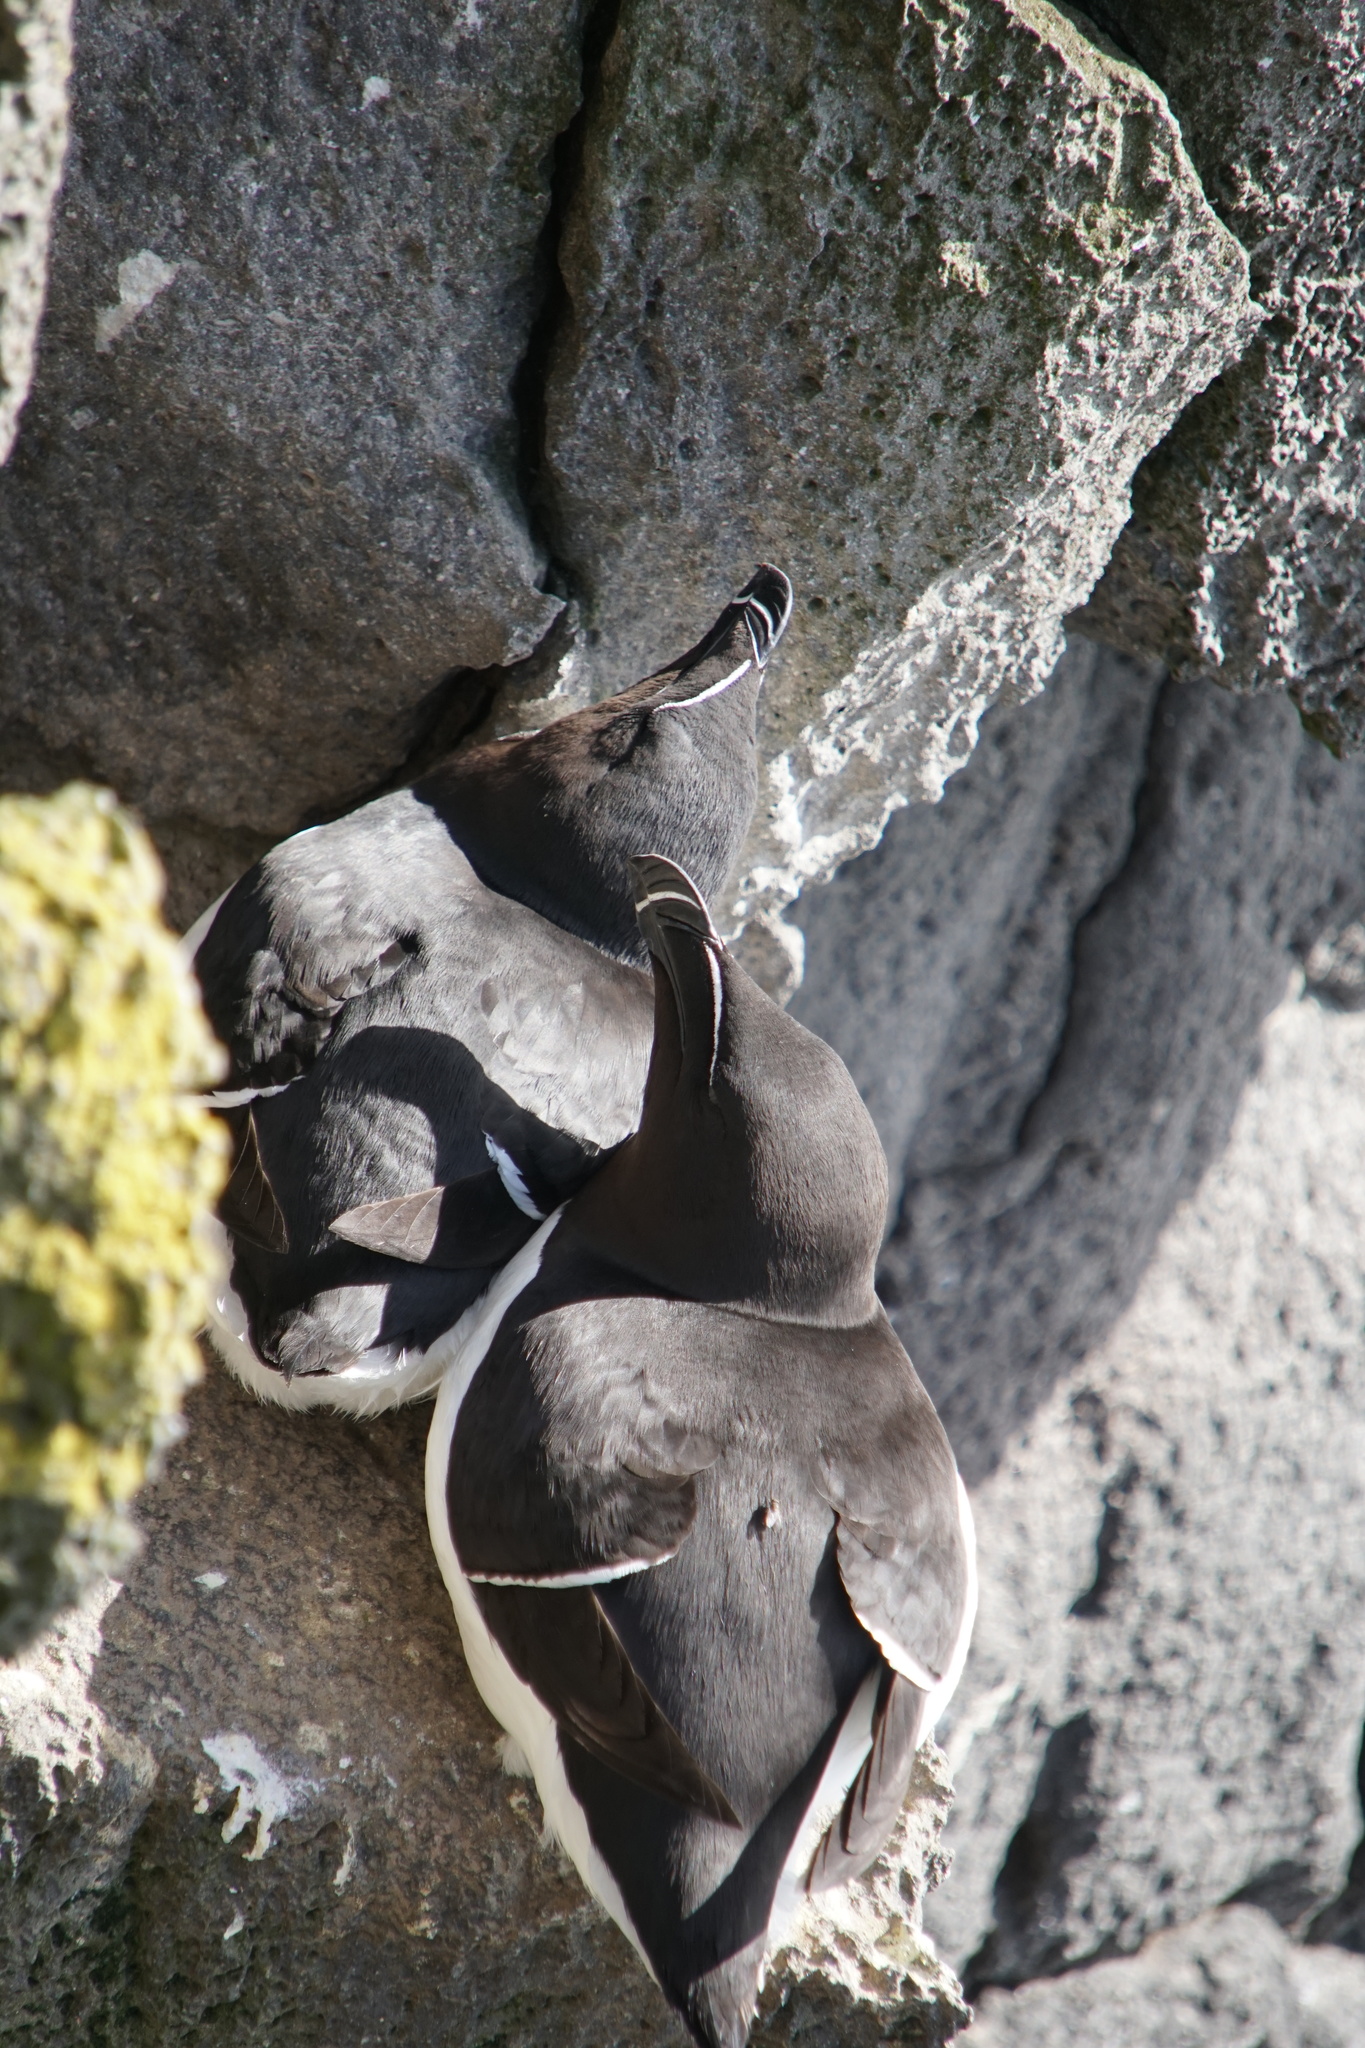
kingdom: Animalia
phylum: Chordata
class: Aves
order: Charadriiformes
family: Alcidae
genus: Alca
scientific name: Alca torda
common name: Razorbill
